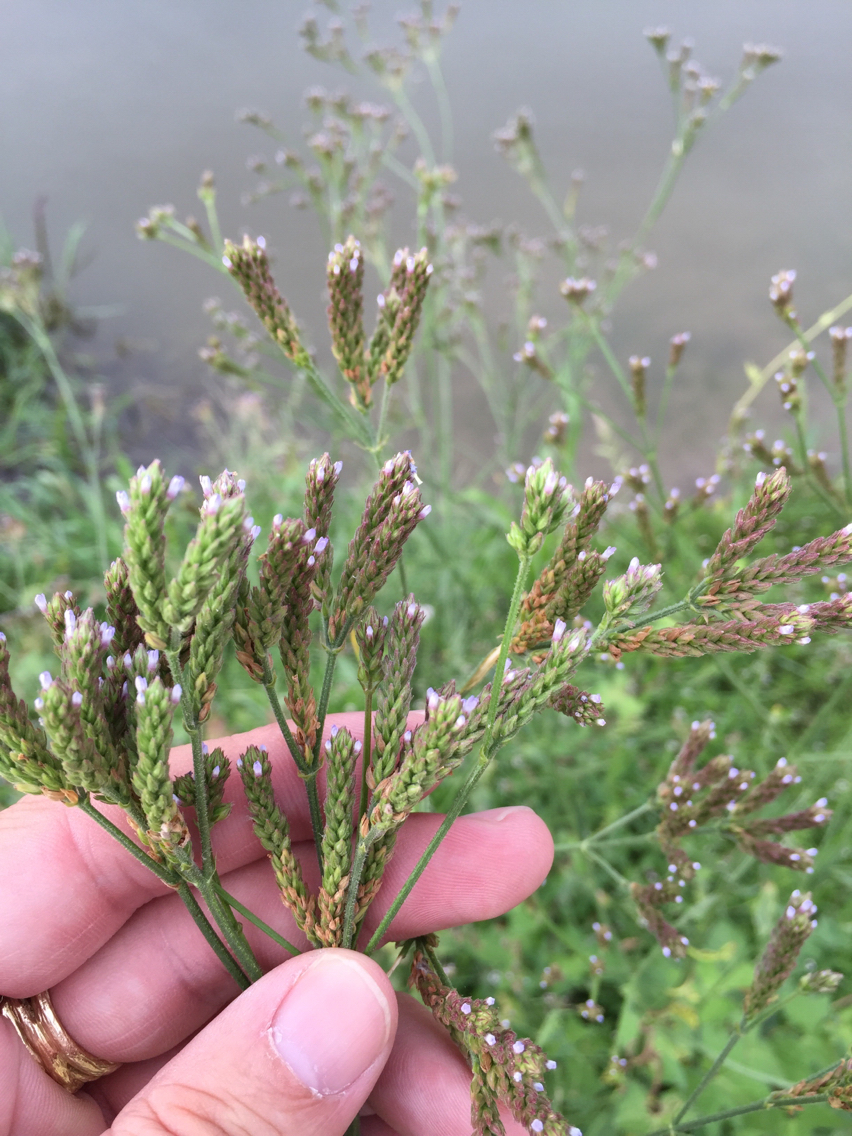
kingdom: Plantae
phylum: Tracheophyta
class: Magnoliopsida
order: Lamiales
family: Verbenaceae
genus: Verbena
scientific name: Verbena brasiliensis
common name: Brazilian vervain
